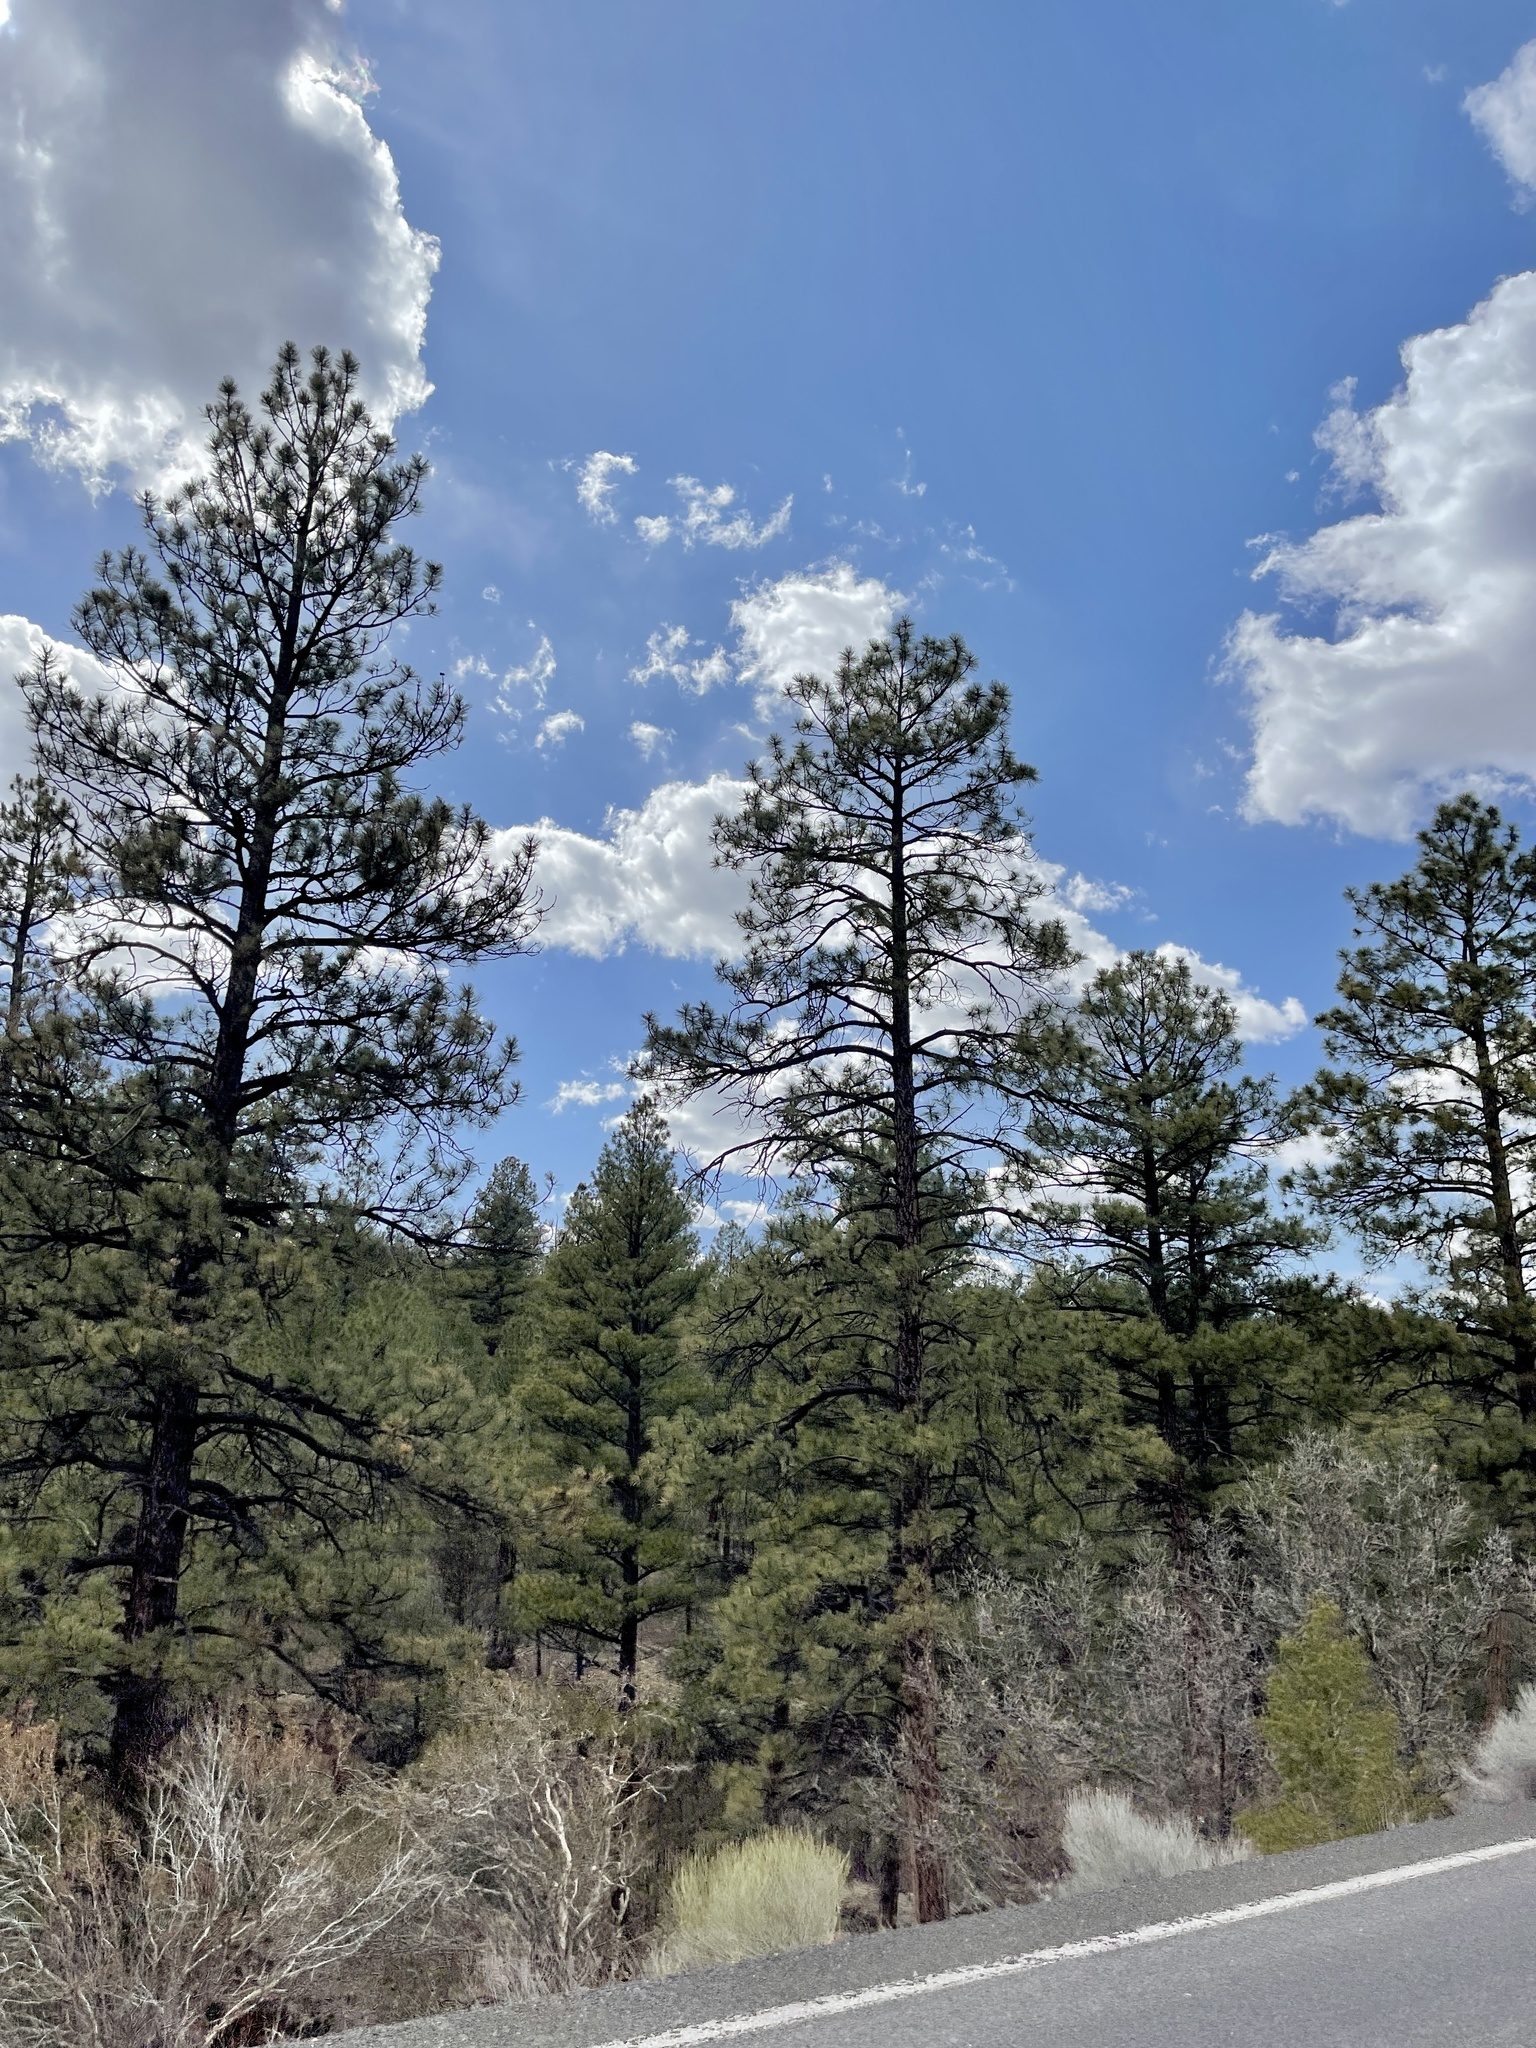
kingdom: Plantae
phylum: Tracheophyta
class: Pinopsida
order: Pinales
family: Pinaceae
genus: Pinus
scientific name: Pinus ponderosa
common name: Western yellow-pine
